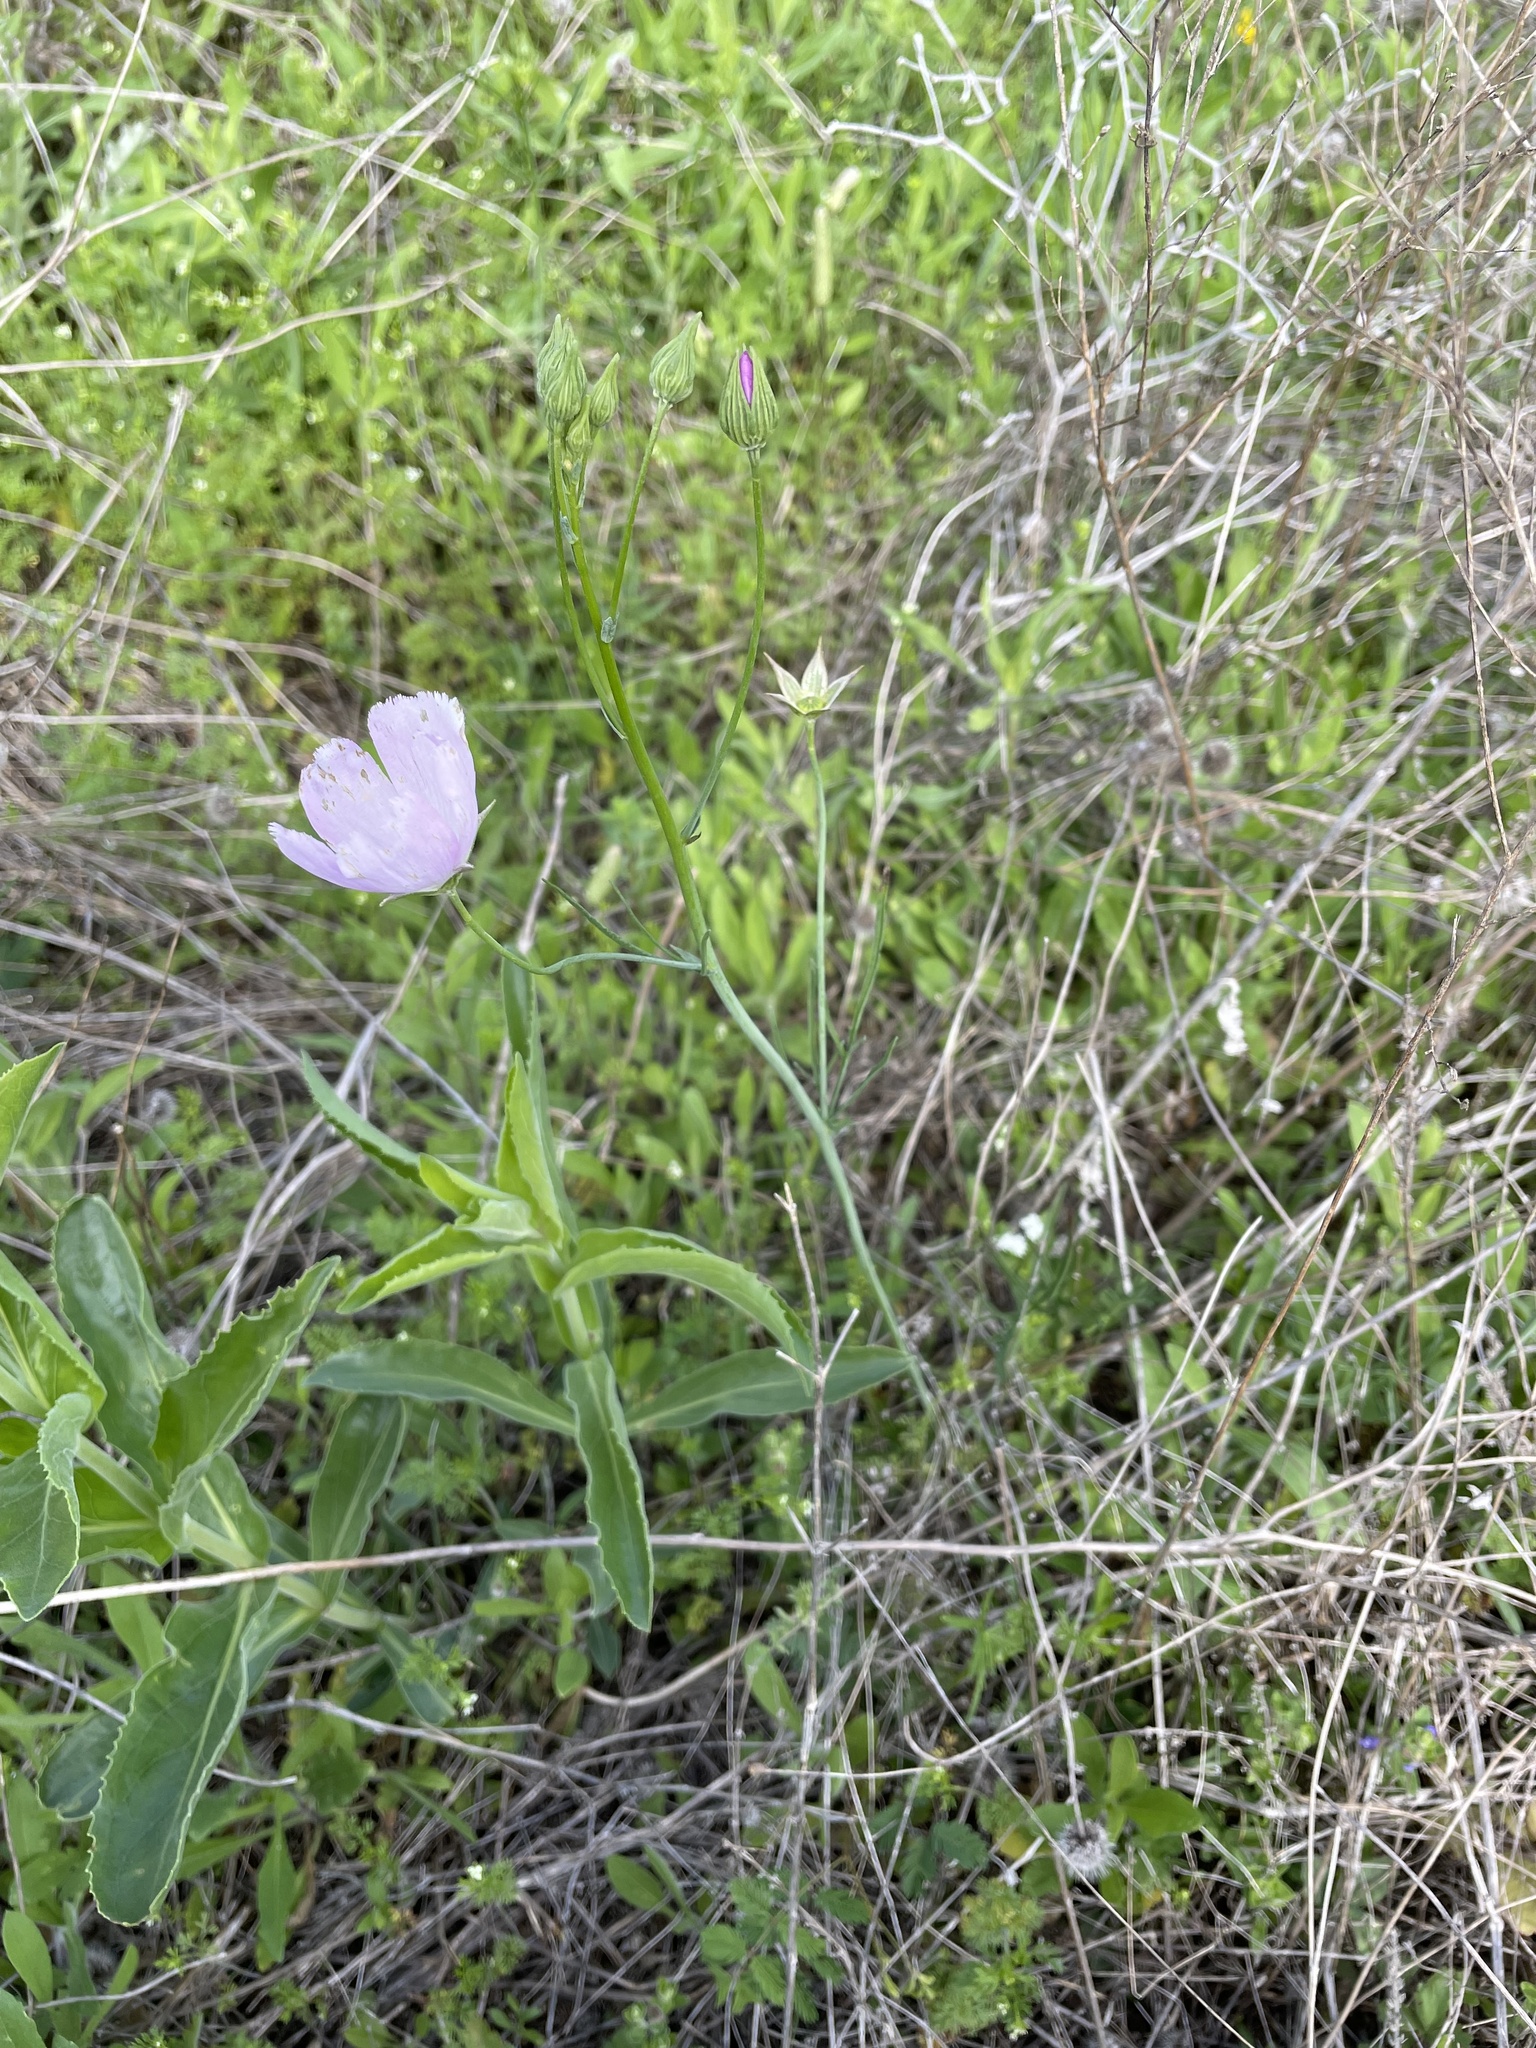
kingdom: Plantae
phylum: Tracheophyta
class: Magnoliopsida
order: Malvales
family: Malvaceae
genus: Callirhoe
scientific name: Callirhoe pedata
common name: Finger poppy-mallow
